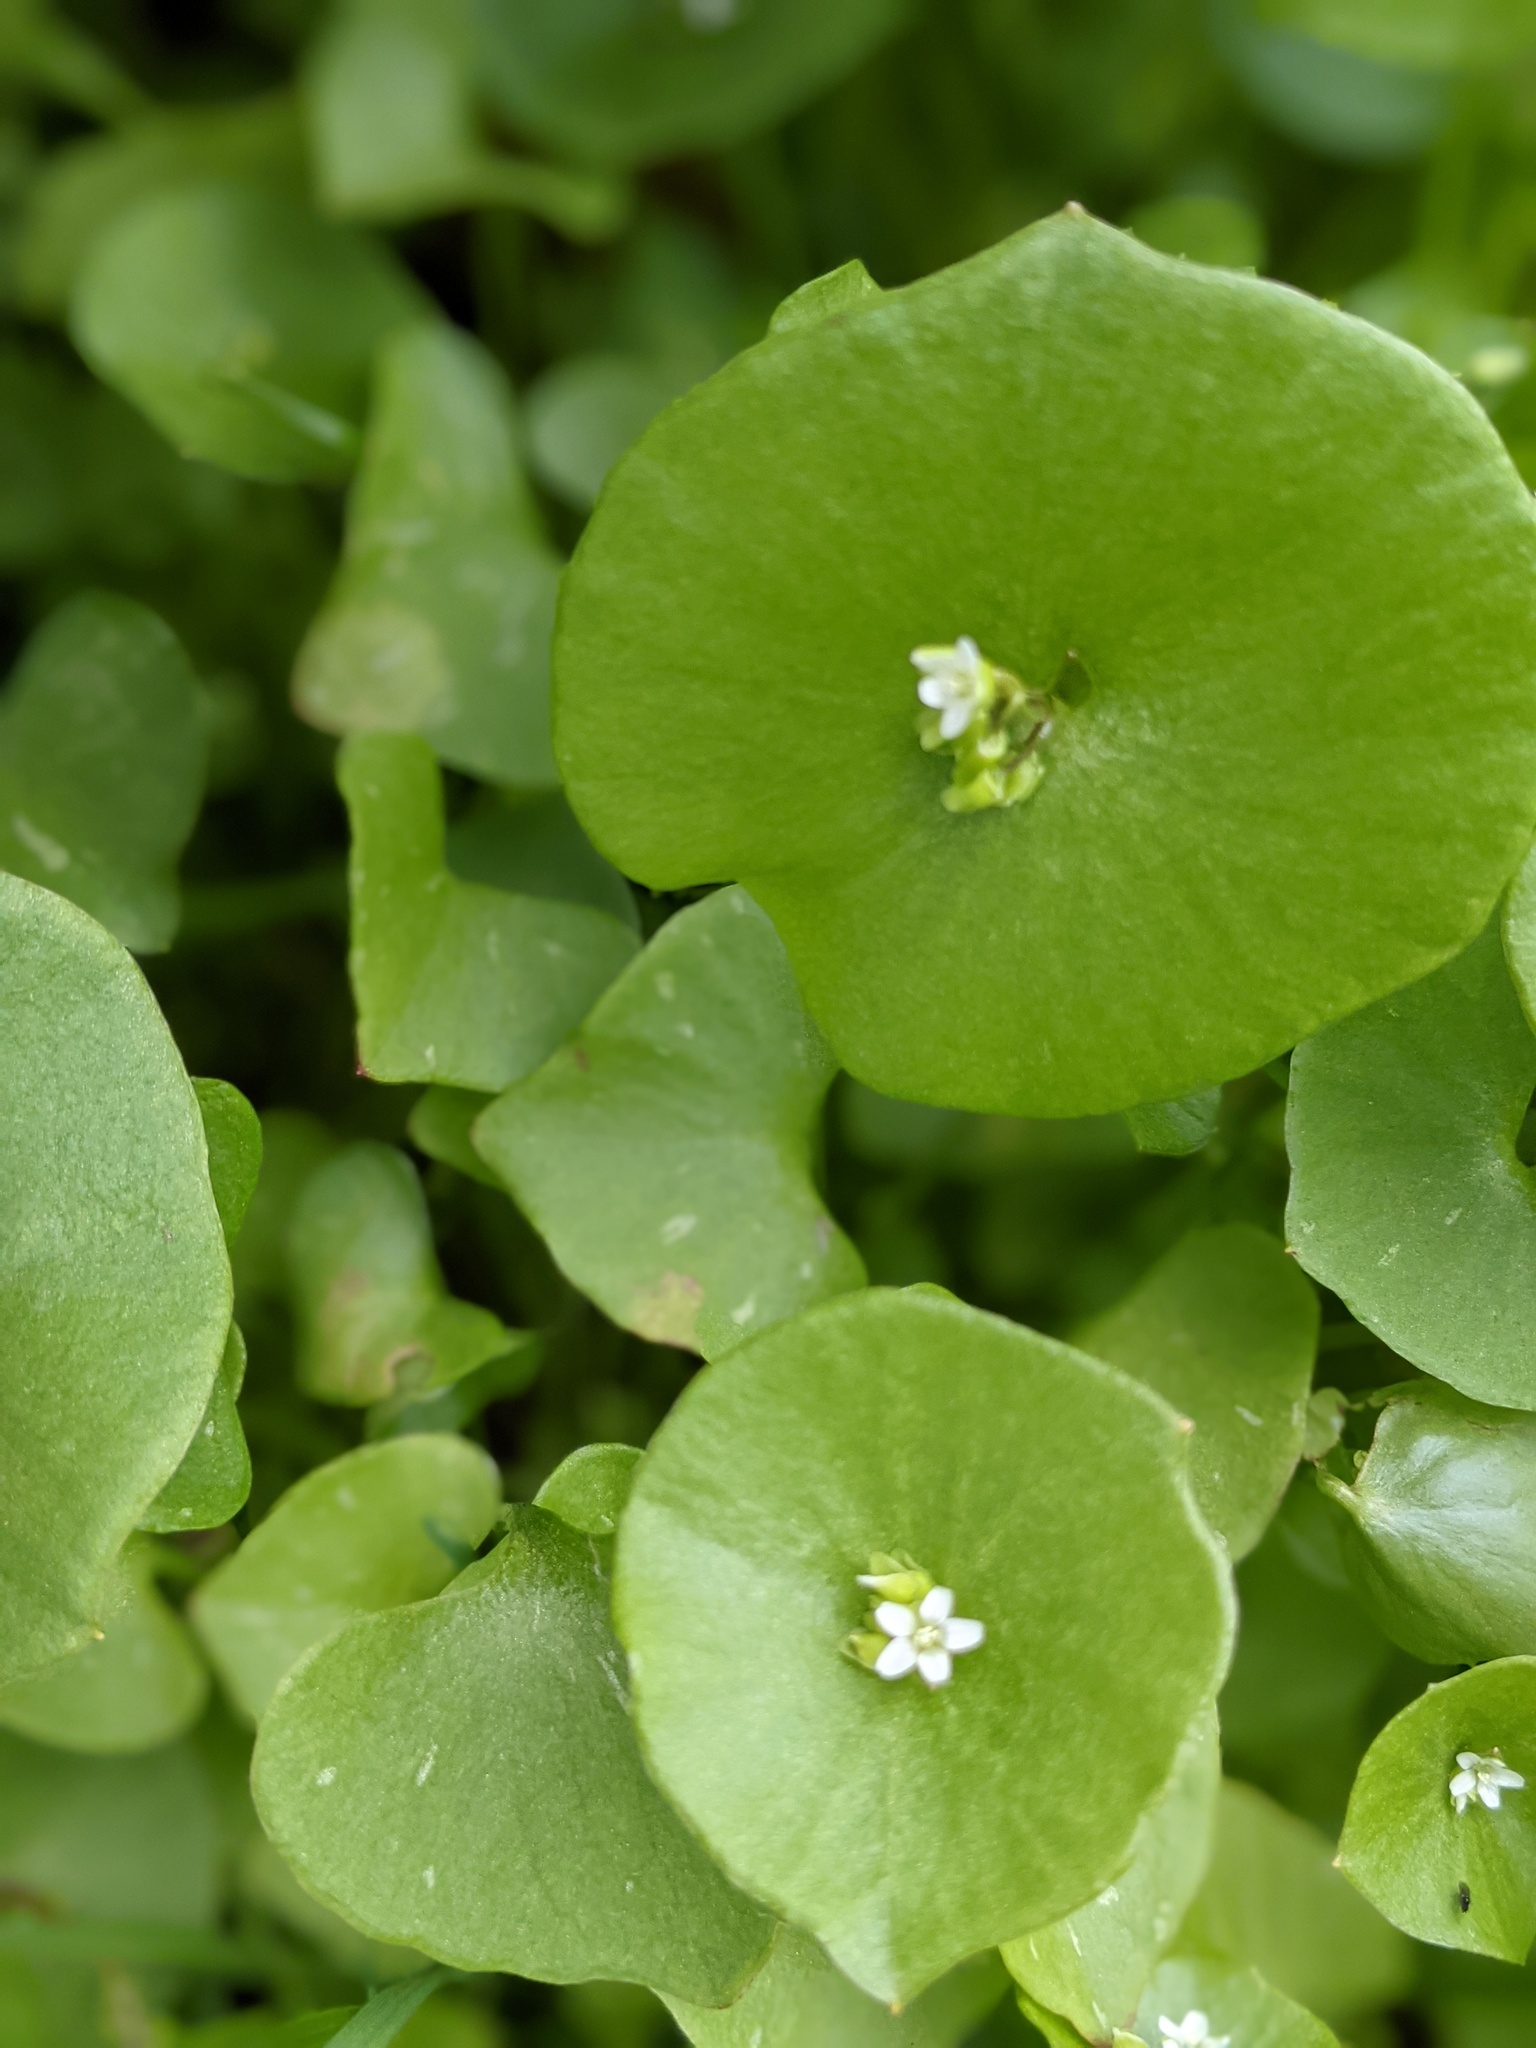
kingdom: Plantae
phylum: Tracheophyta
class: Magnoliopsida
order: Caryophyllales
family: Montiaceae
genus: Claytonia
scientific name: Claytonia perfoliata
